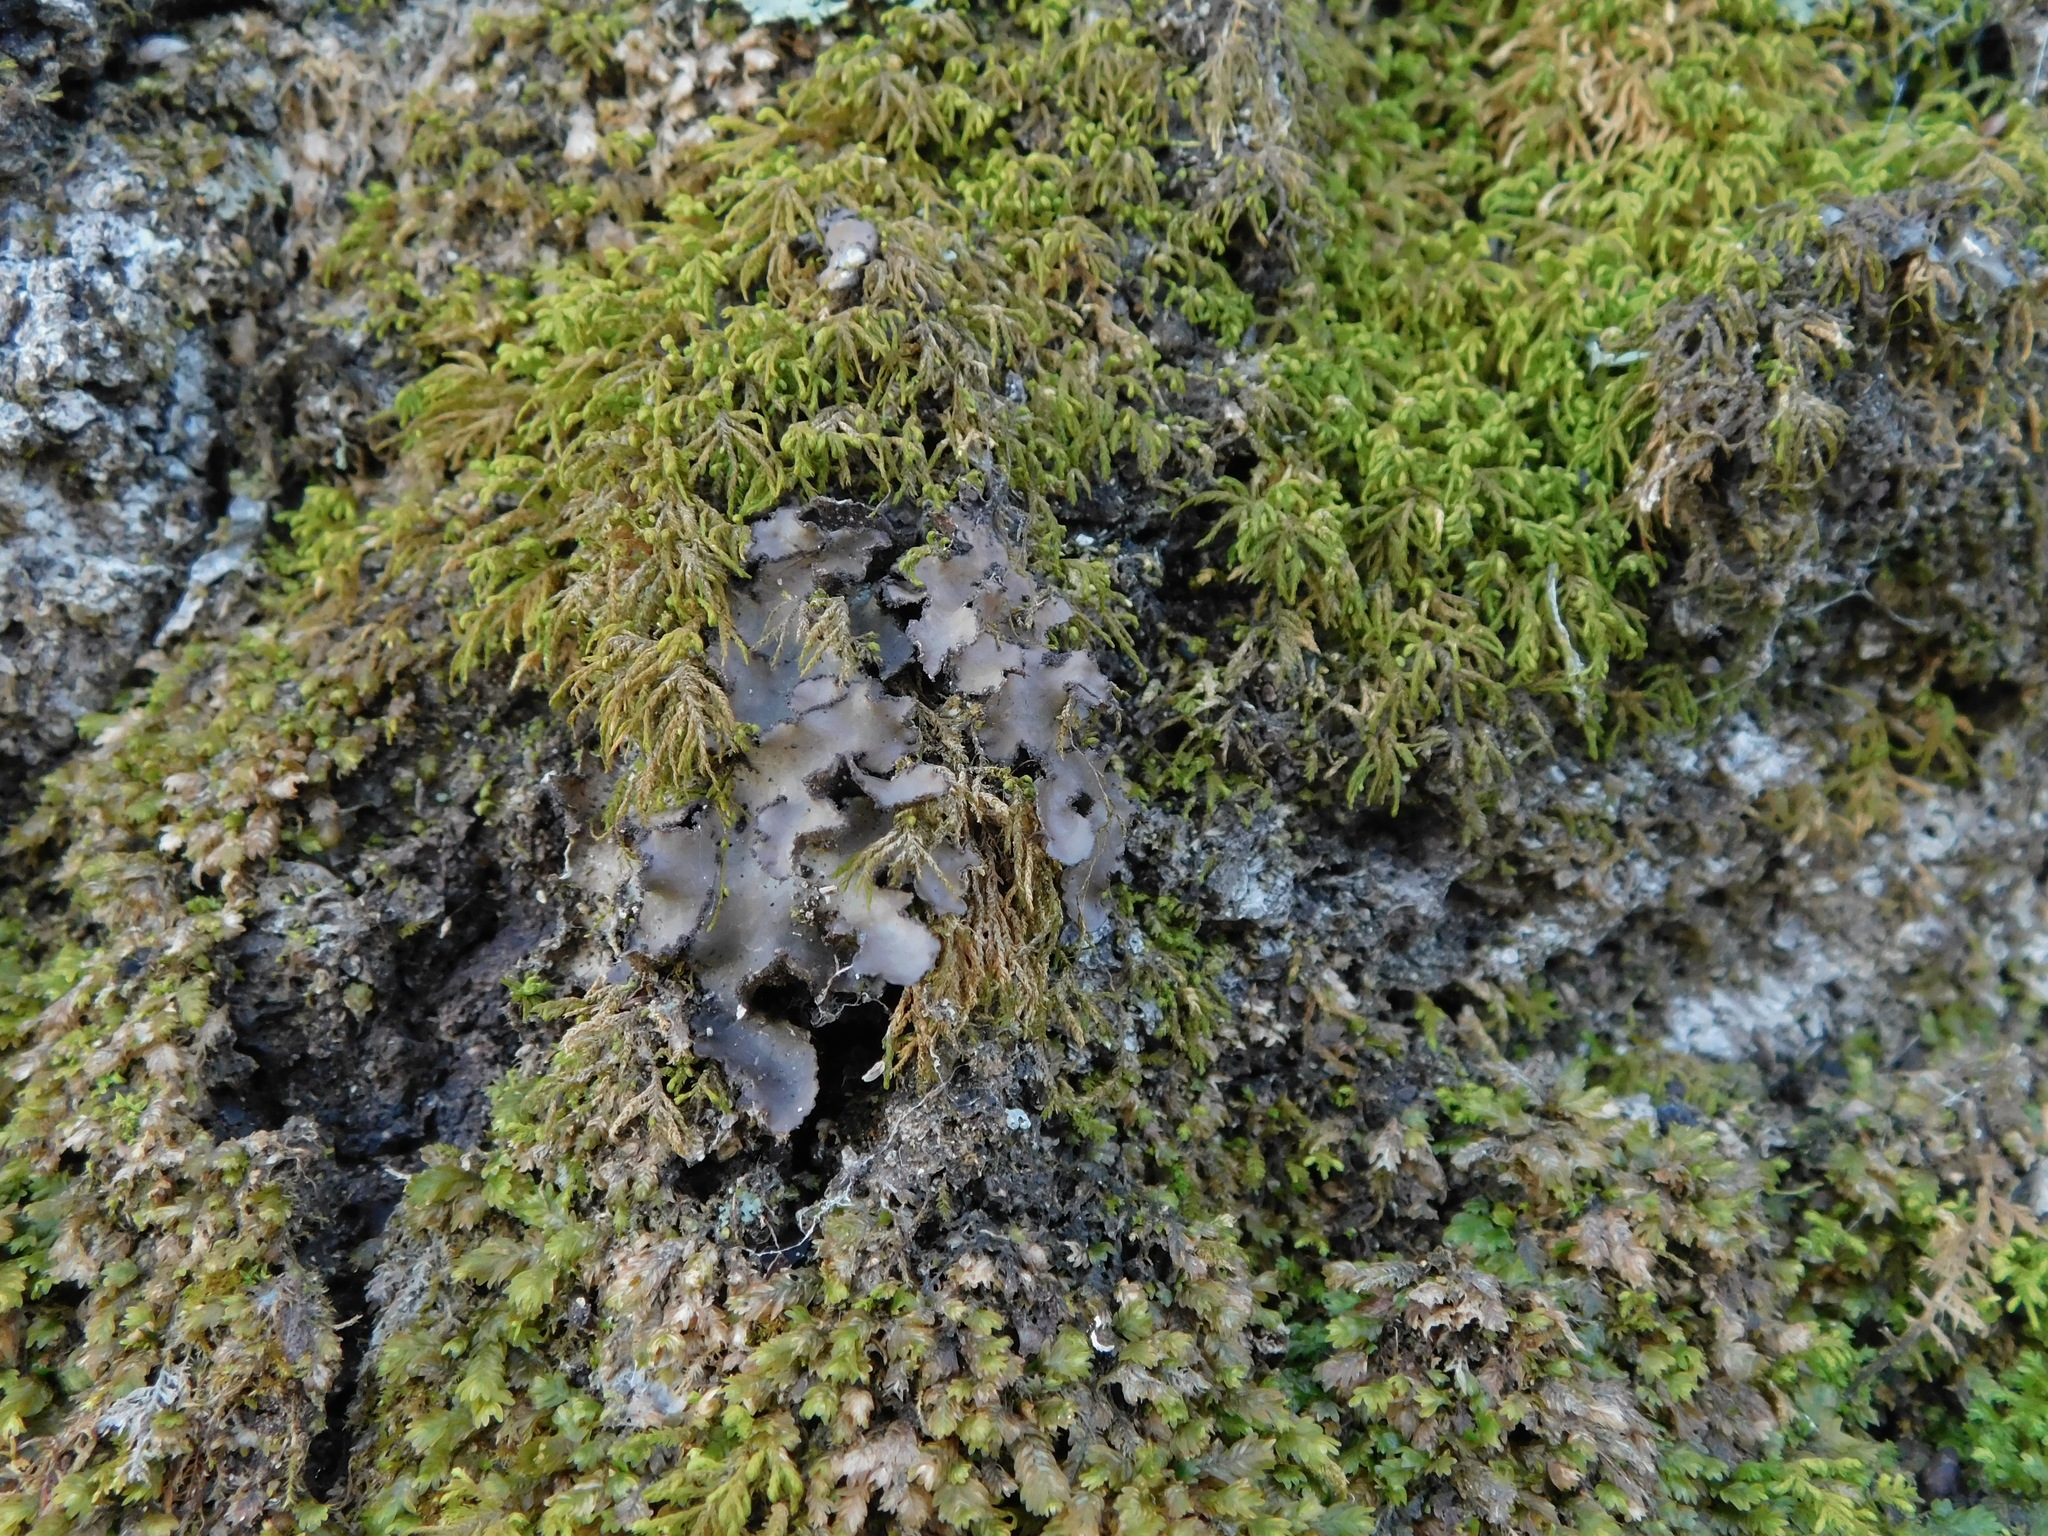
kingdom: Fungi
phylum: Ascomycota
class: Lecanoromycetes
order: Peltigerales
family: Lobariaceae
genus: Sticta
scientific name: Sticta beauvoisii
